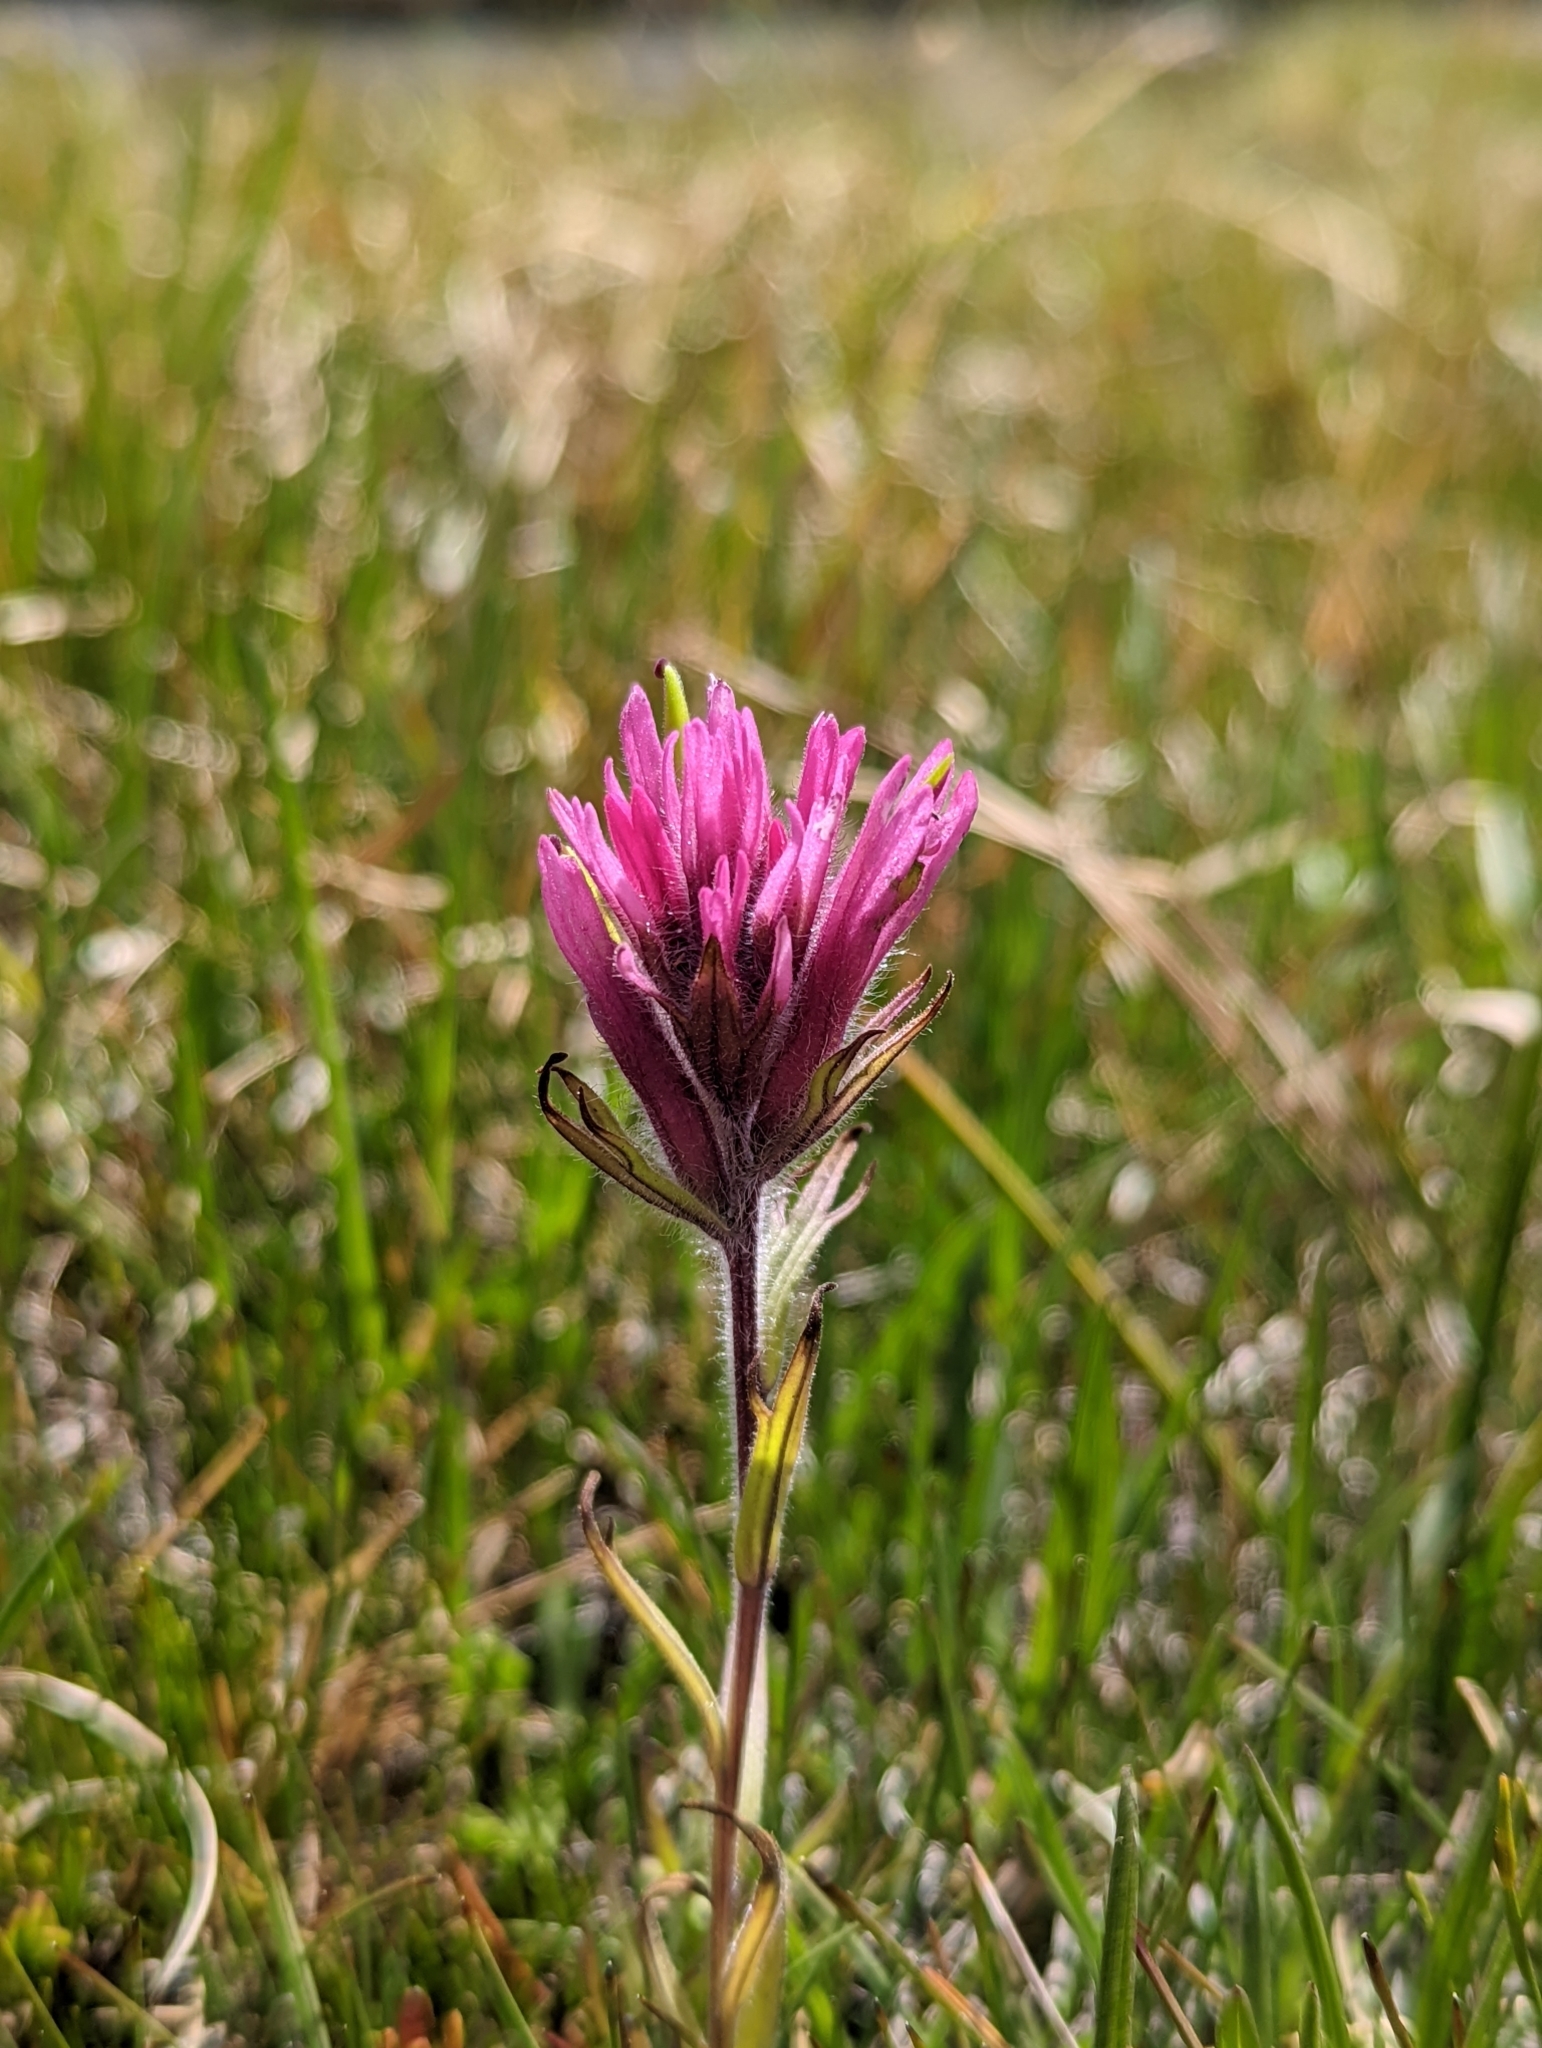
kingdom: Plantae
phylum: Tracheophyta
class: Magnoliopsida
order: Lamiales
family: Orobanchaceae
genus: Castilleja
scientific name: Castilleja lemmonii
